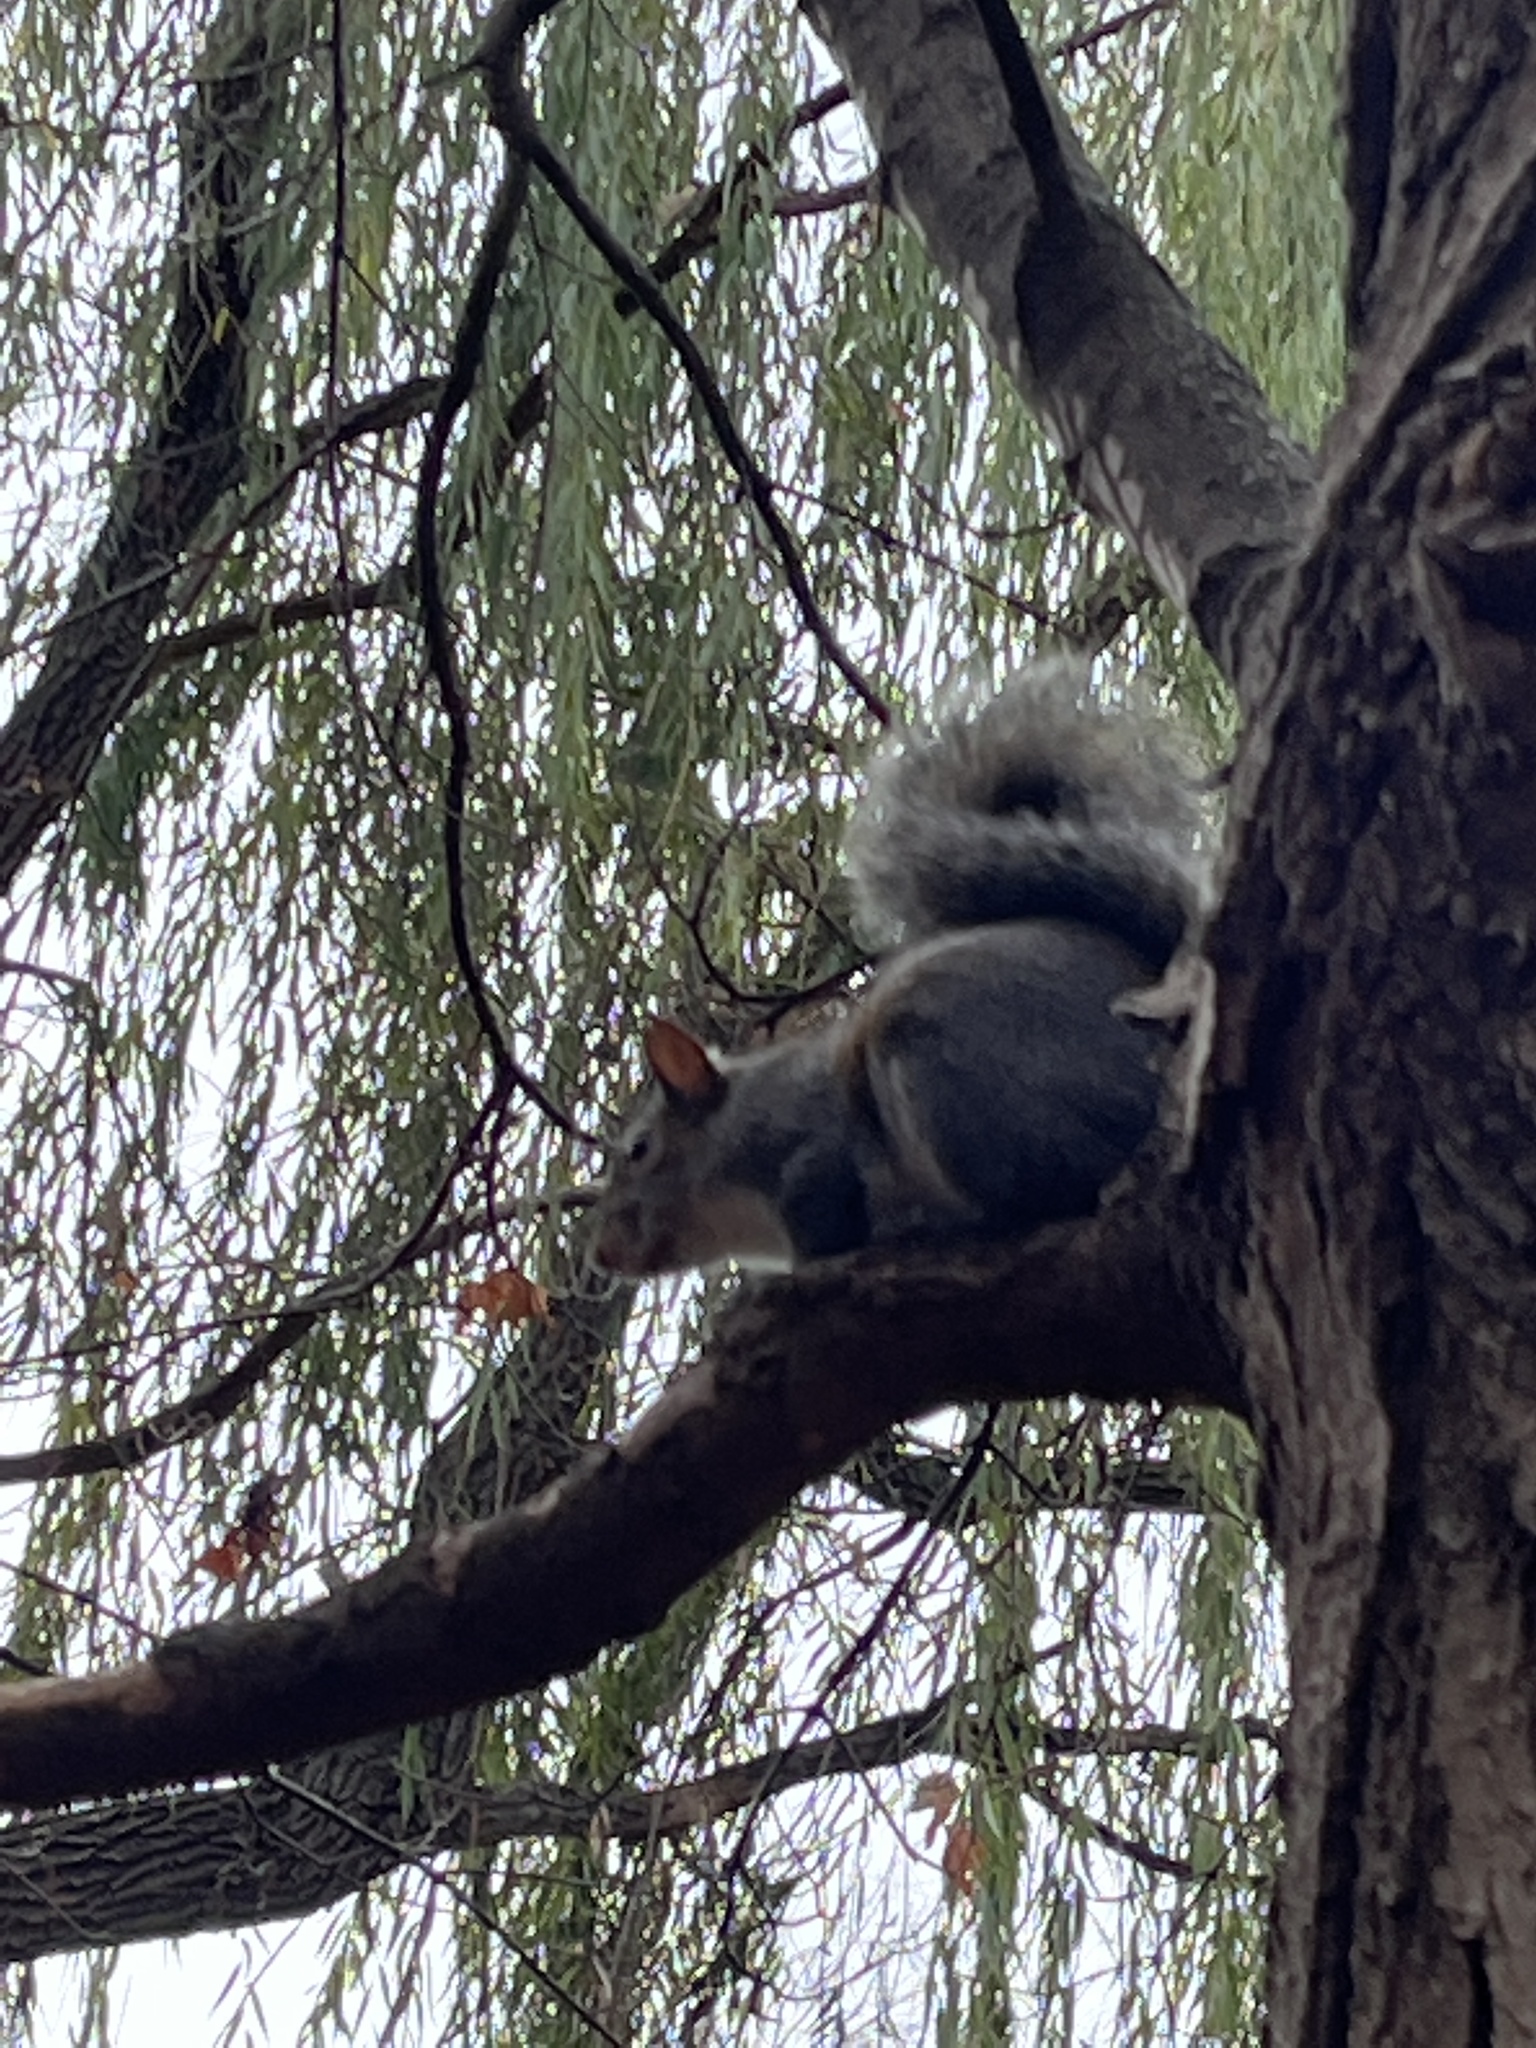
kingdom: Animalia
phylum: Chordata
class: Mammalia
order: Rodentia
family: Sciuridae
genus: Sciurus
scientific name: Sciurus carolinensis
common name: Eastern gray squirrel
